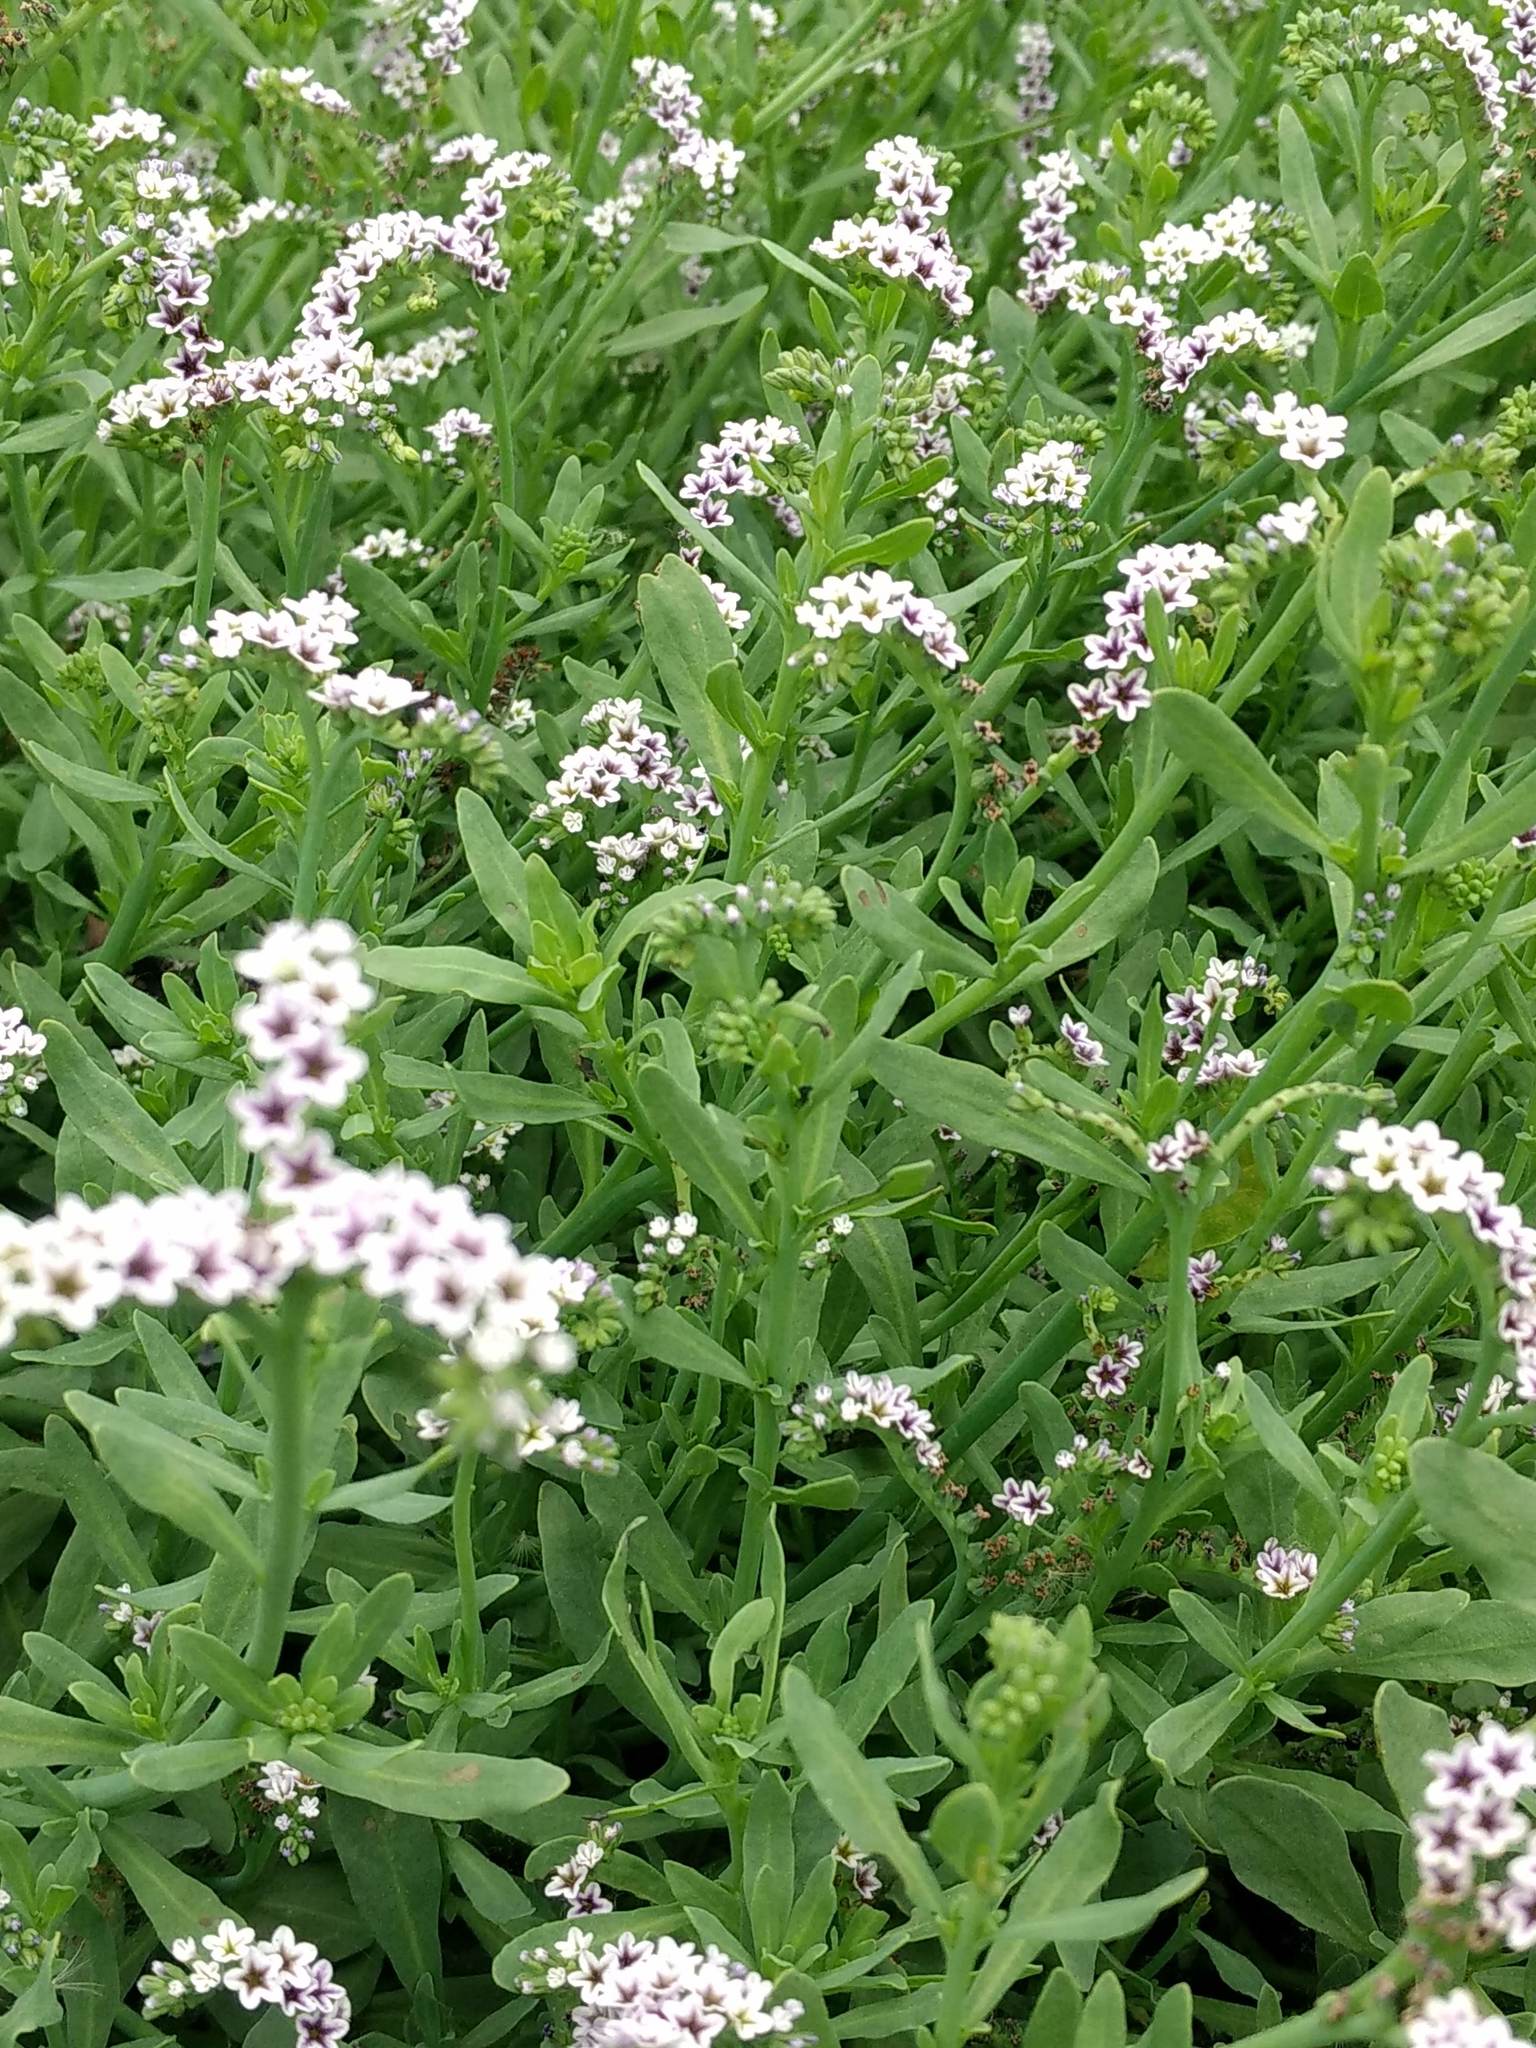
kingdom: Plantae
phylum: Tracheophyta
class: Magnoliopsida
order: Boraginales
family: Heliotropiaceae
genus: Heliotropium
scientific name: Heliotropium curassavicum
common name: Seaside heliotrope
